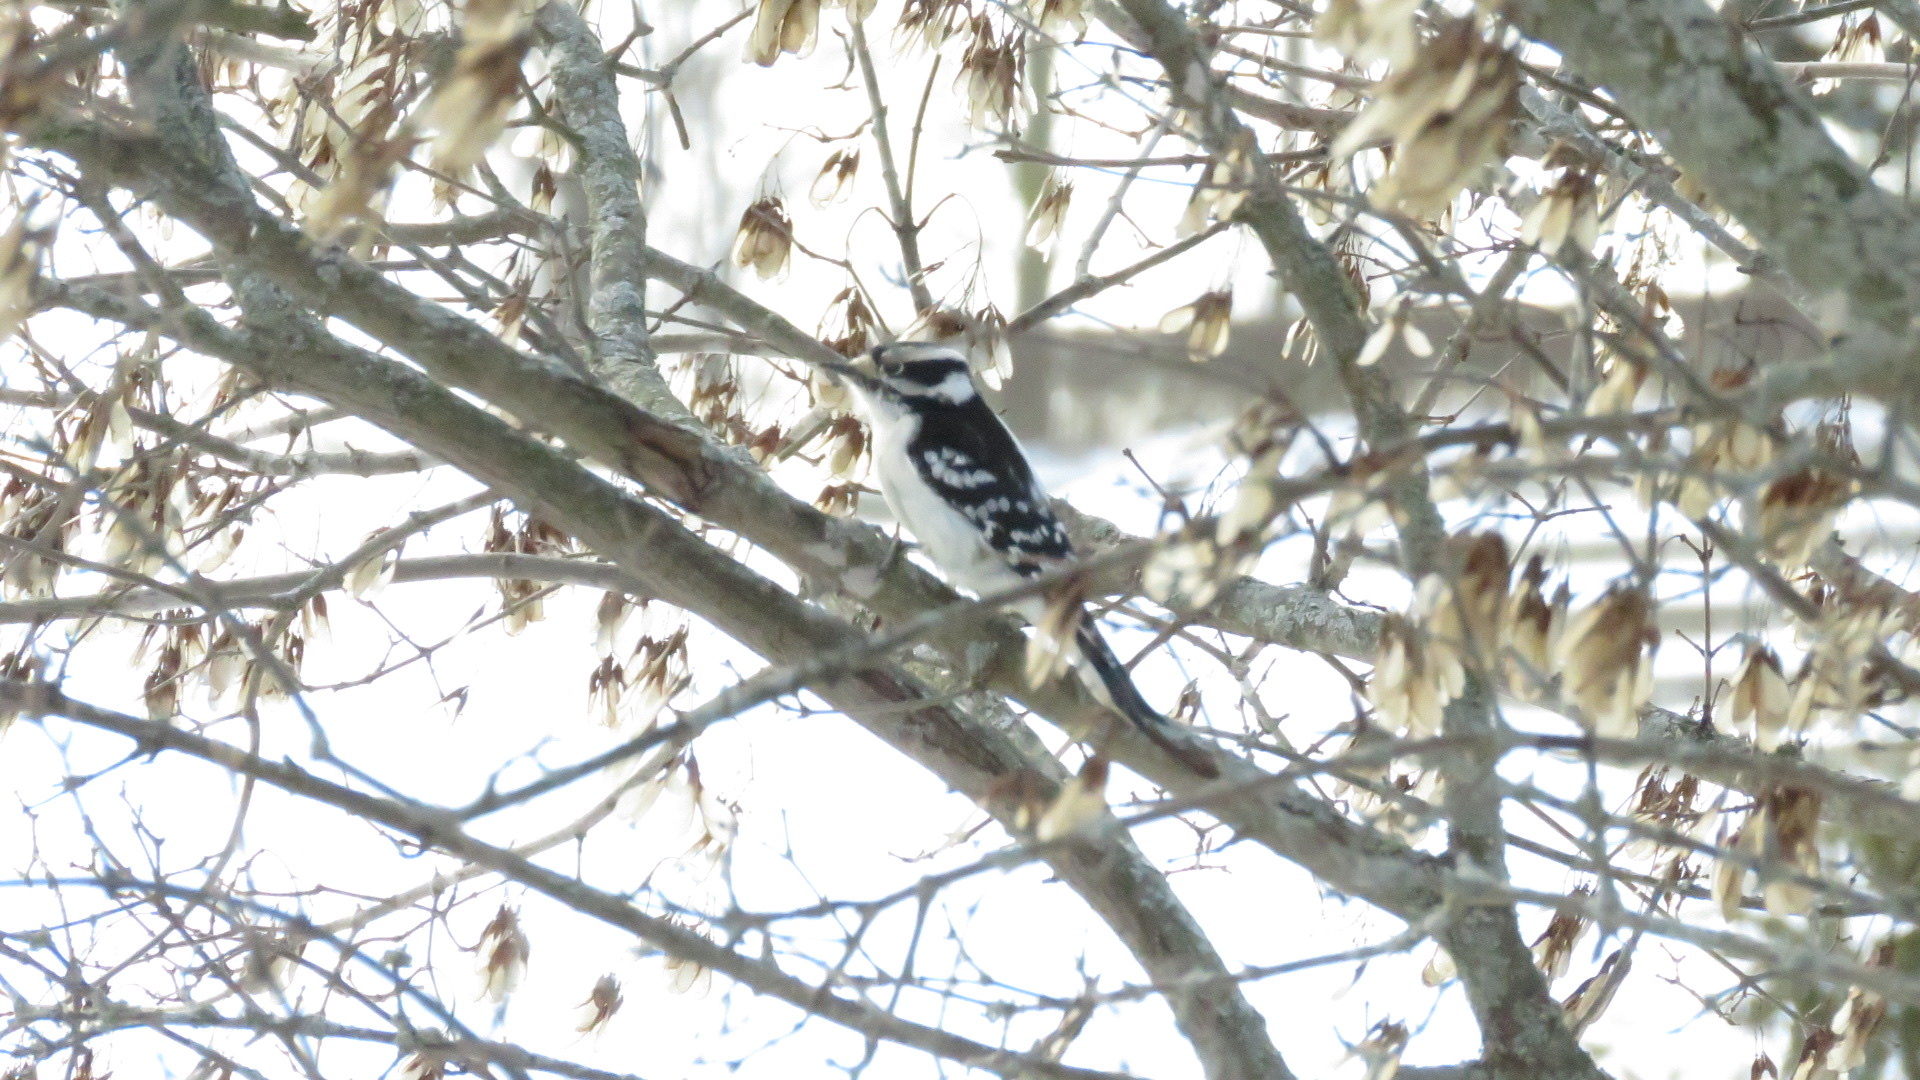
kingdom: Animalia
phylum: Chordata
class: Aves
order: Piciformes
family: Picidae
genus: Dryobates
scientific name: Dryobates pubescens
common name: Downy woodpecker
